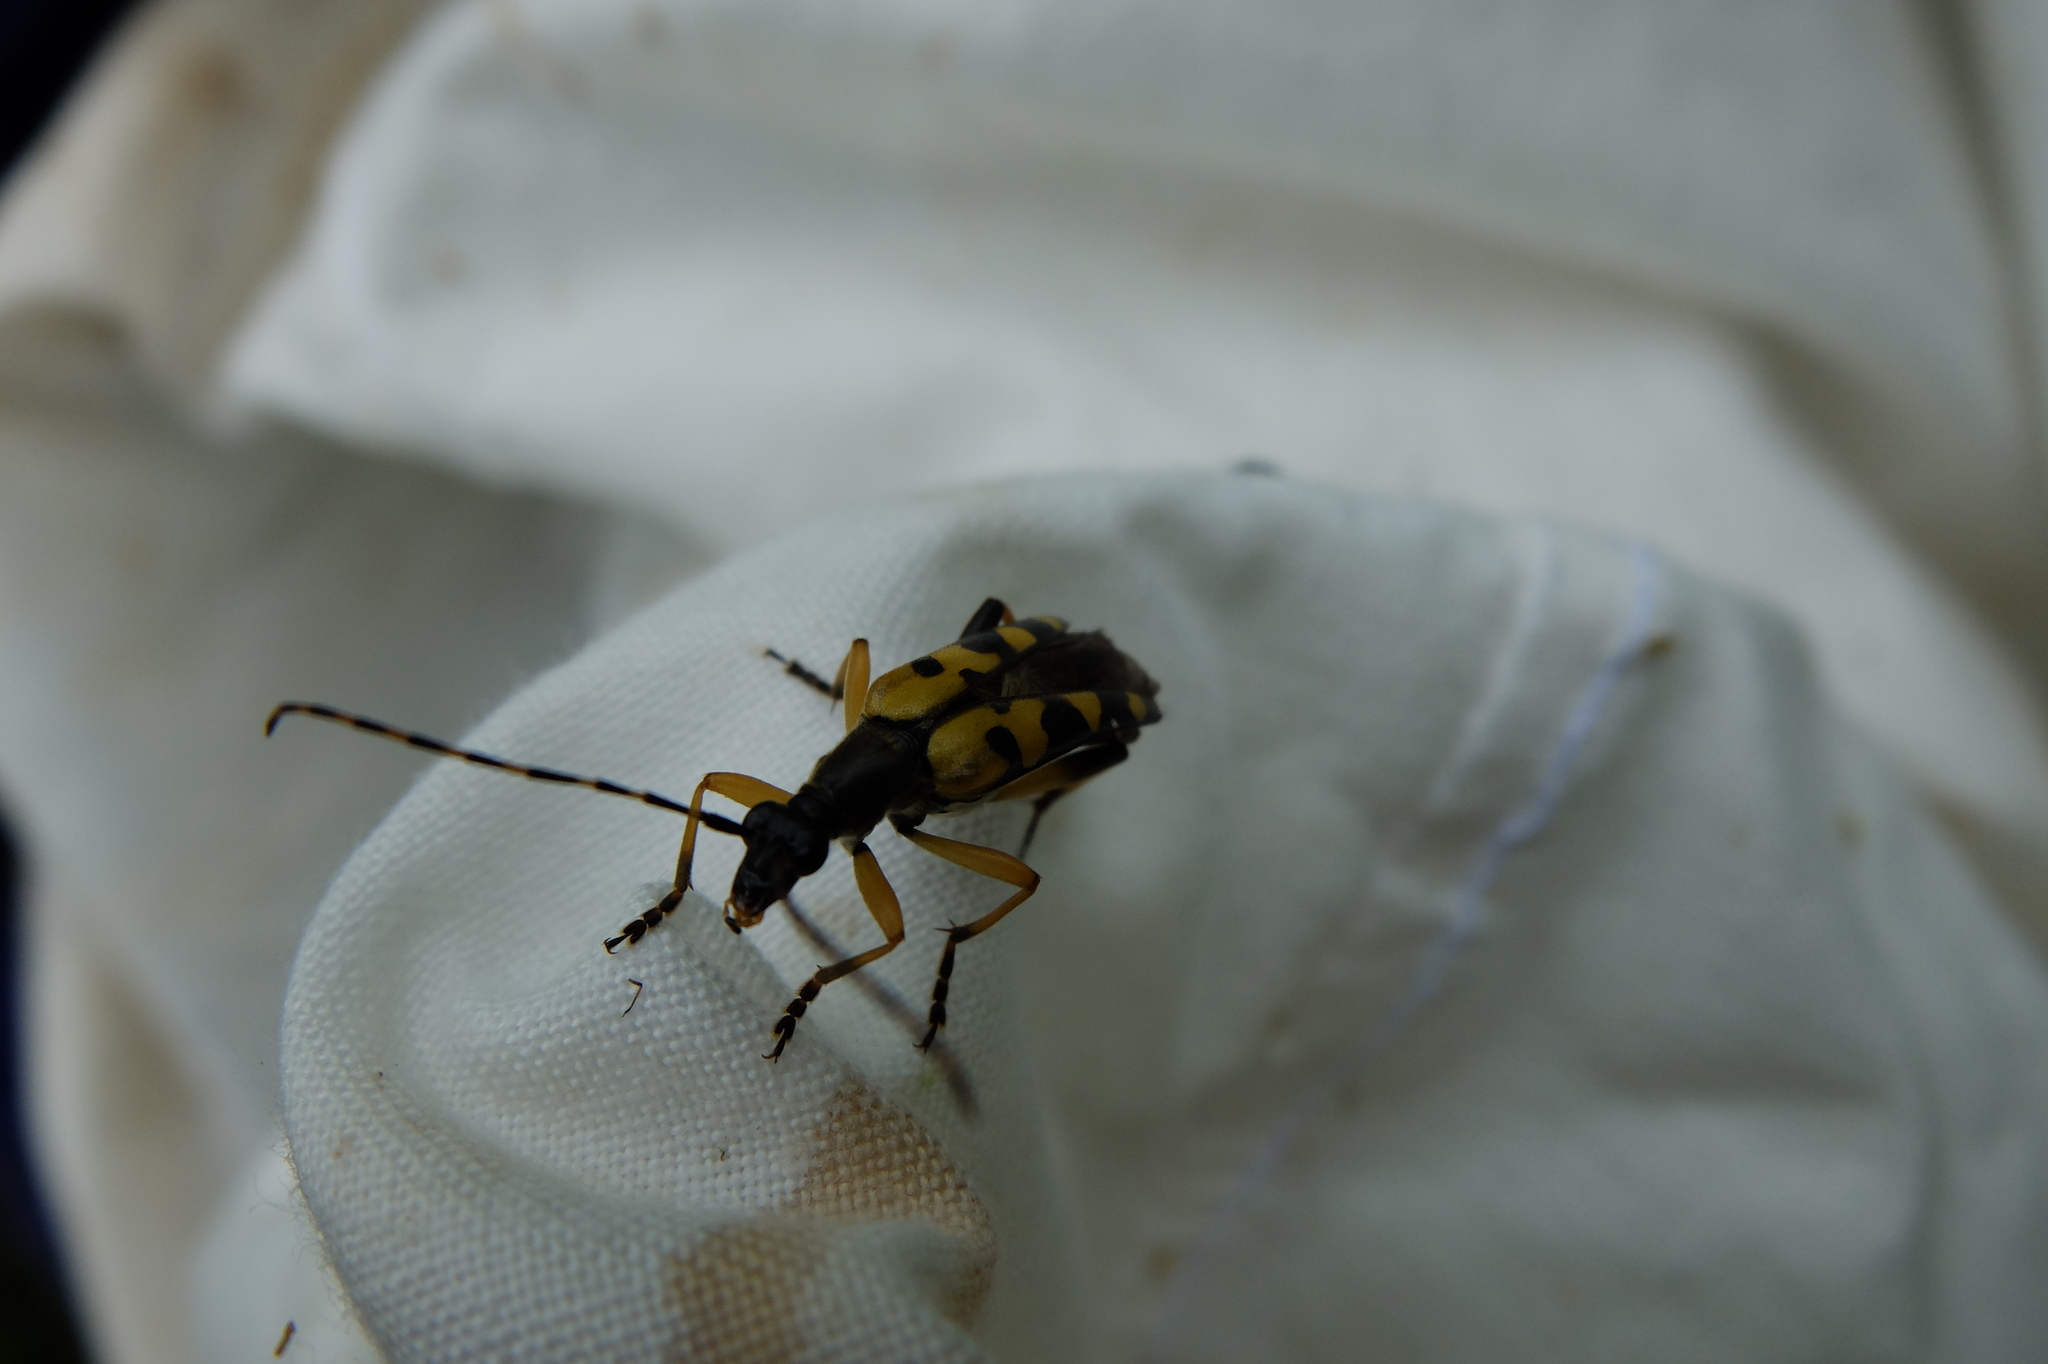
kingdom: Animalia
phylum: Arthropoda
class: Insecta
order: Coleoptera
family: Cerambycidae
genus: Rutpela
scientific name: Rutpela maculata
